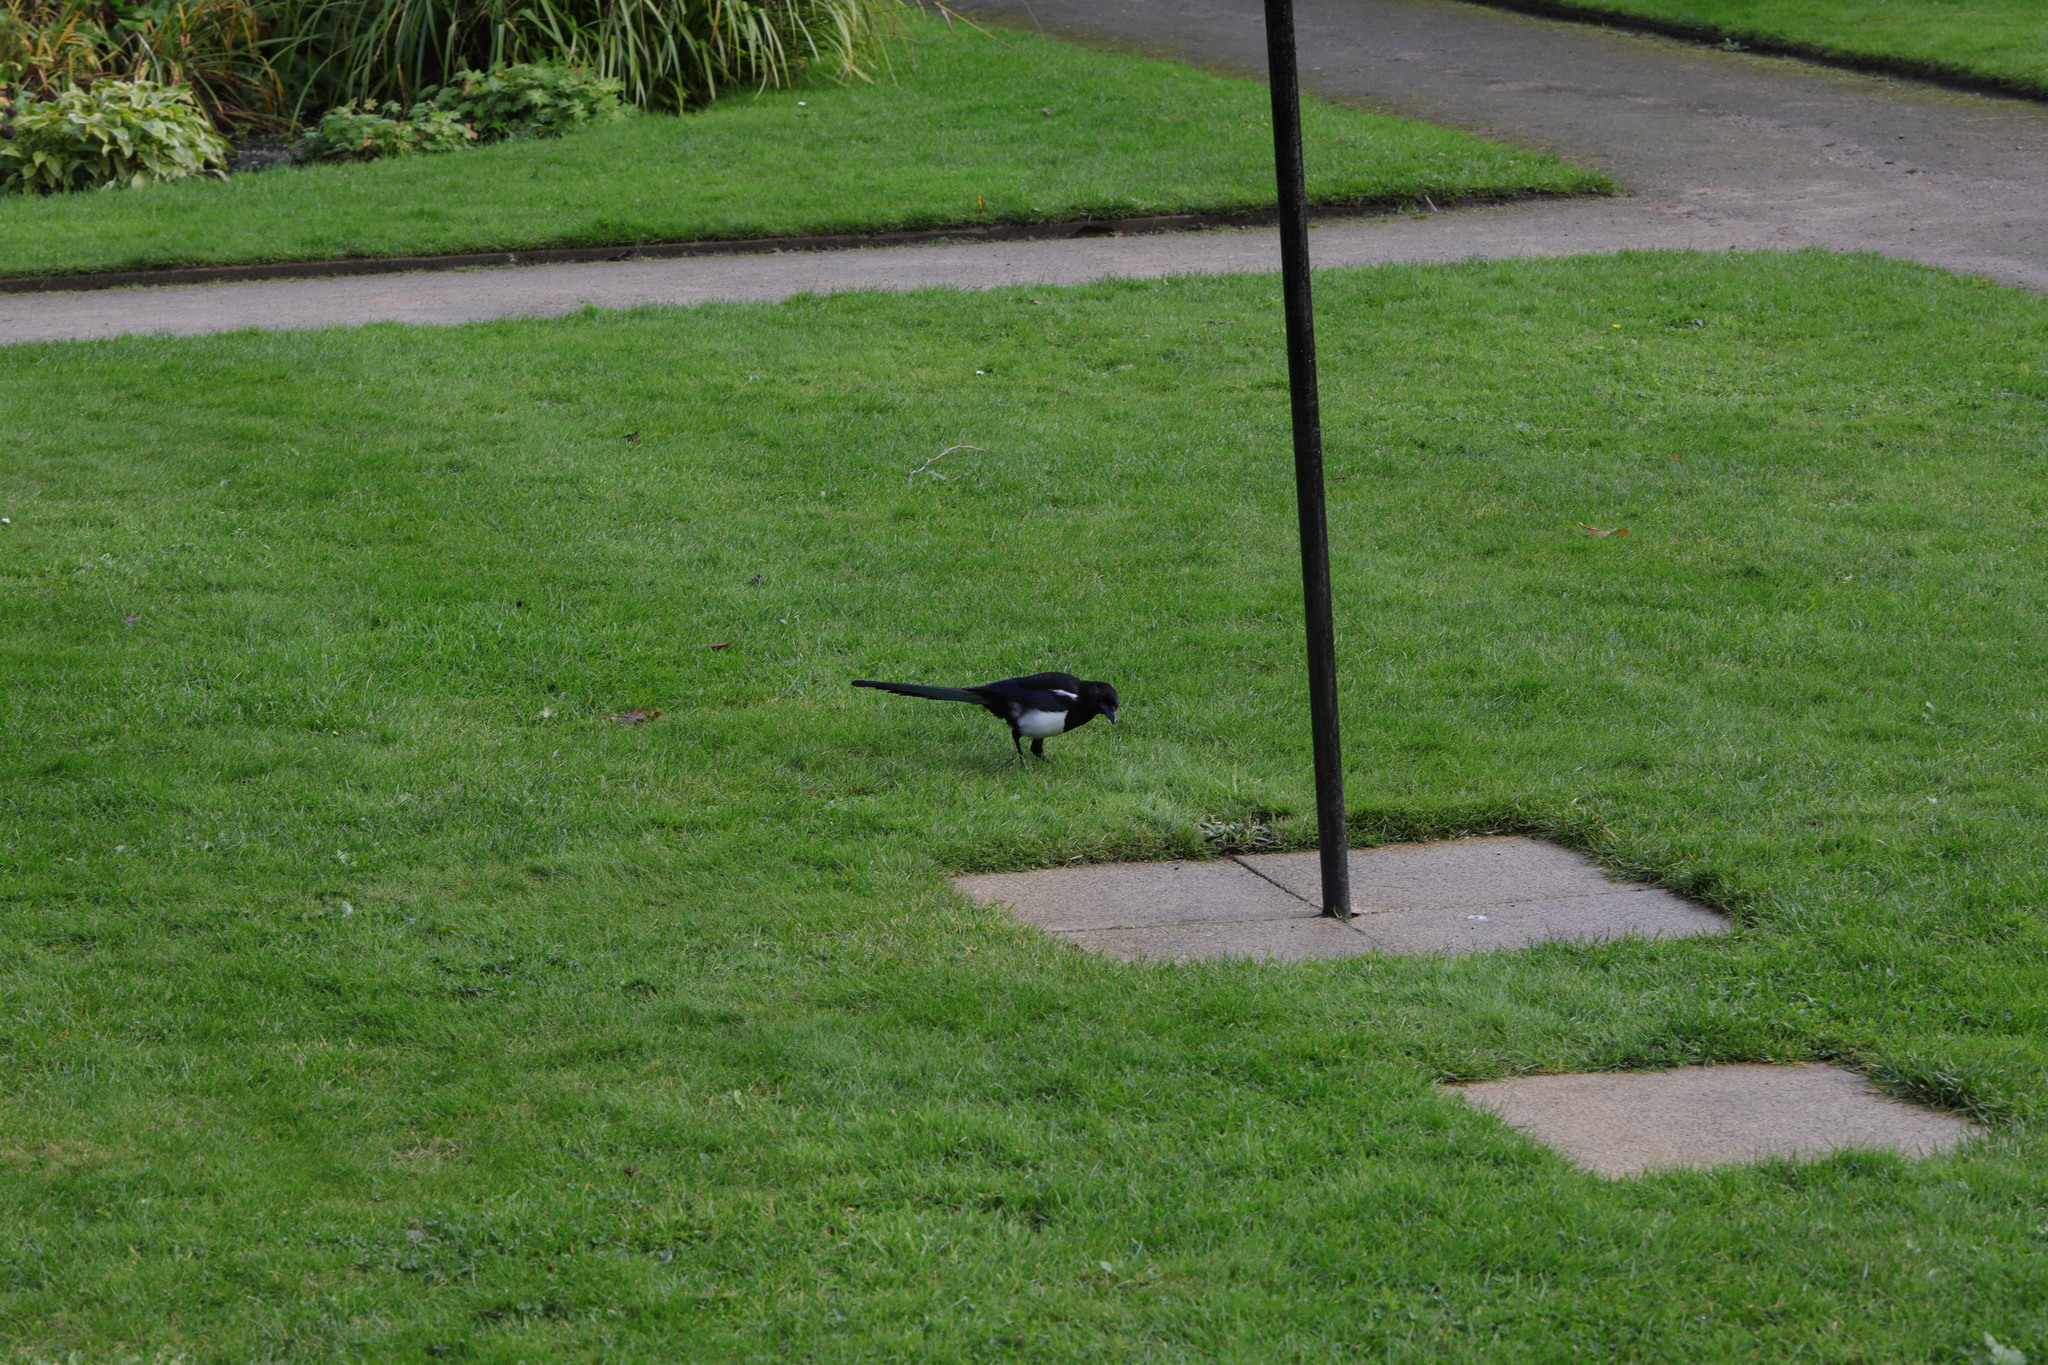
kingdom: Animalia
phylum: Chordata
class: Aves
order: Passeriformes
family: Corvidae
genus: Pica
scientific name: Pica pica
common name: Eurasian magpie
